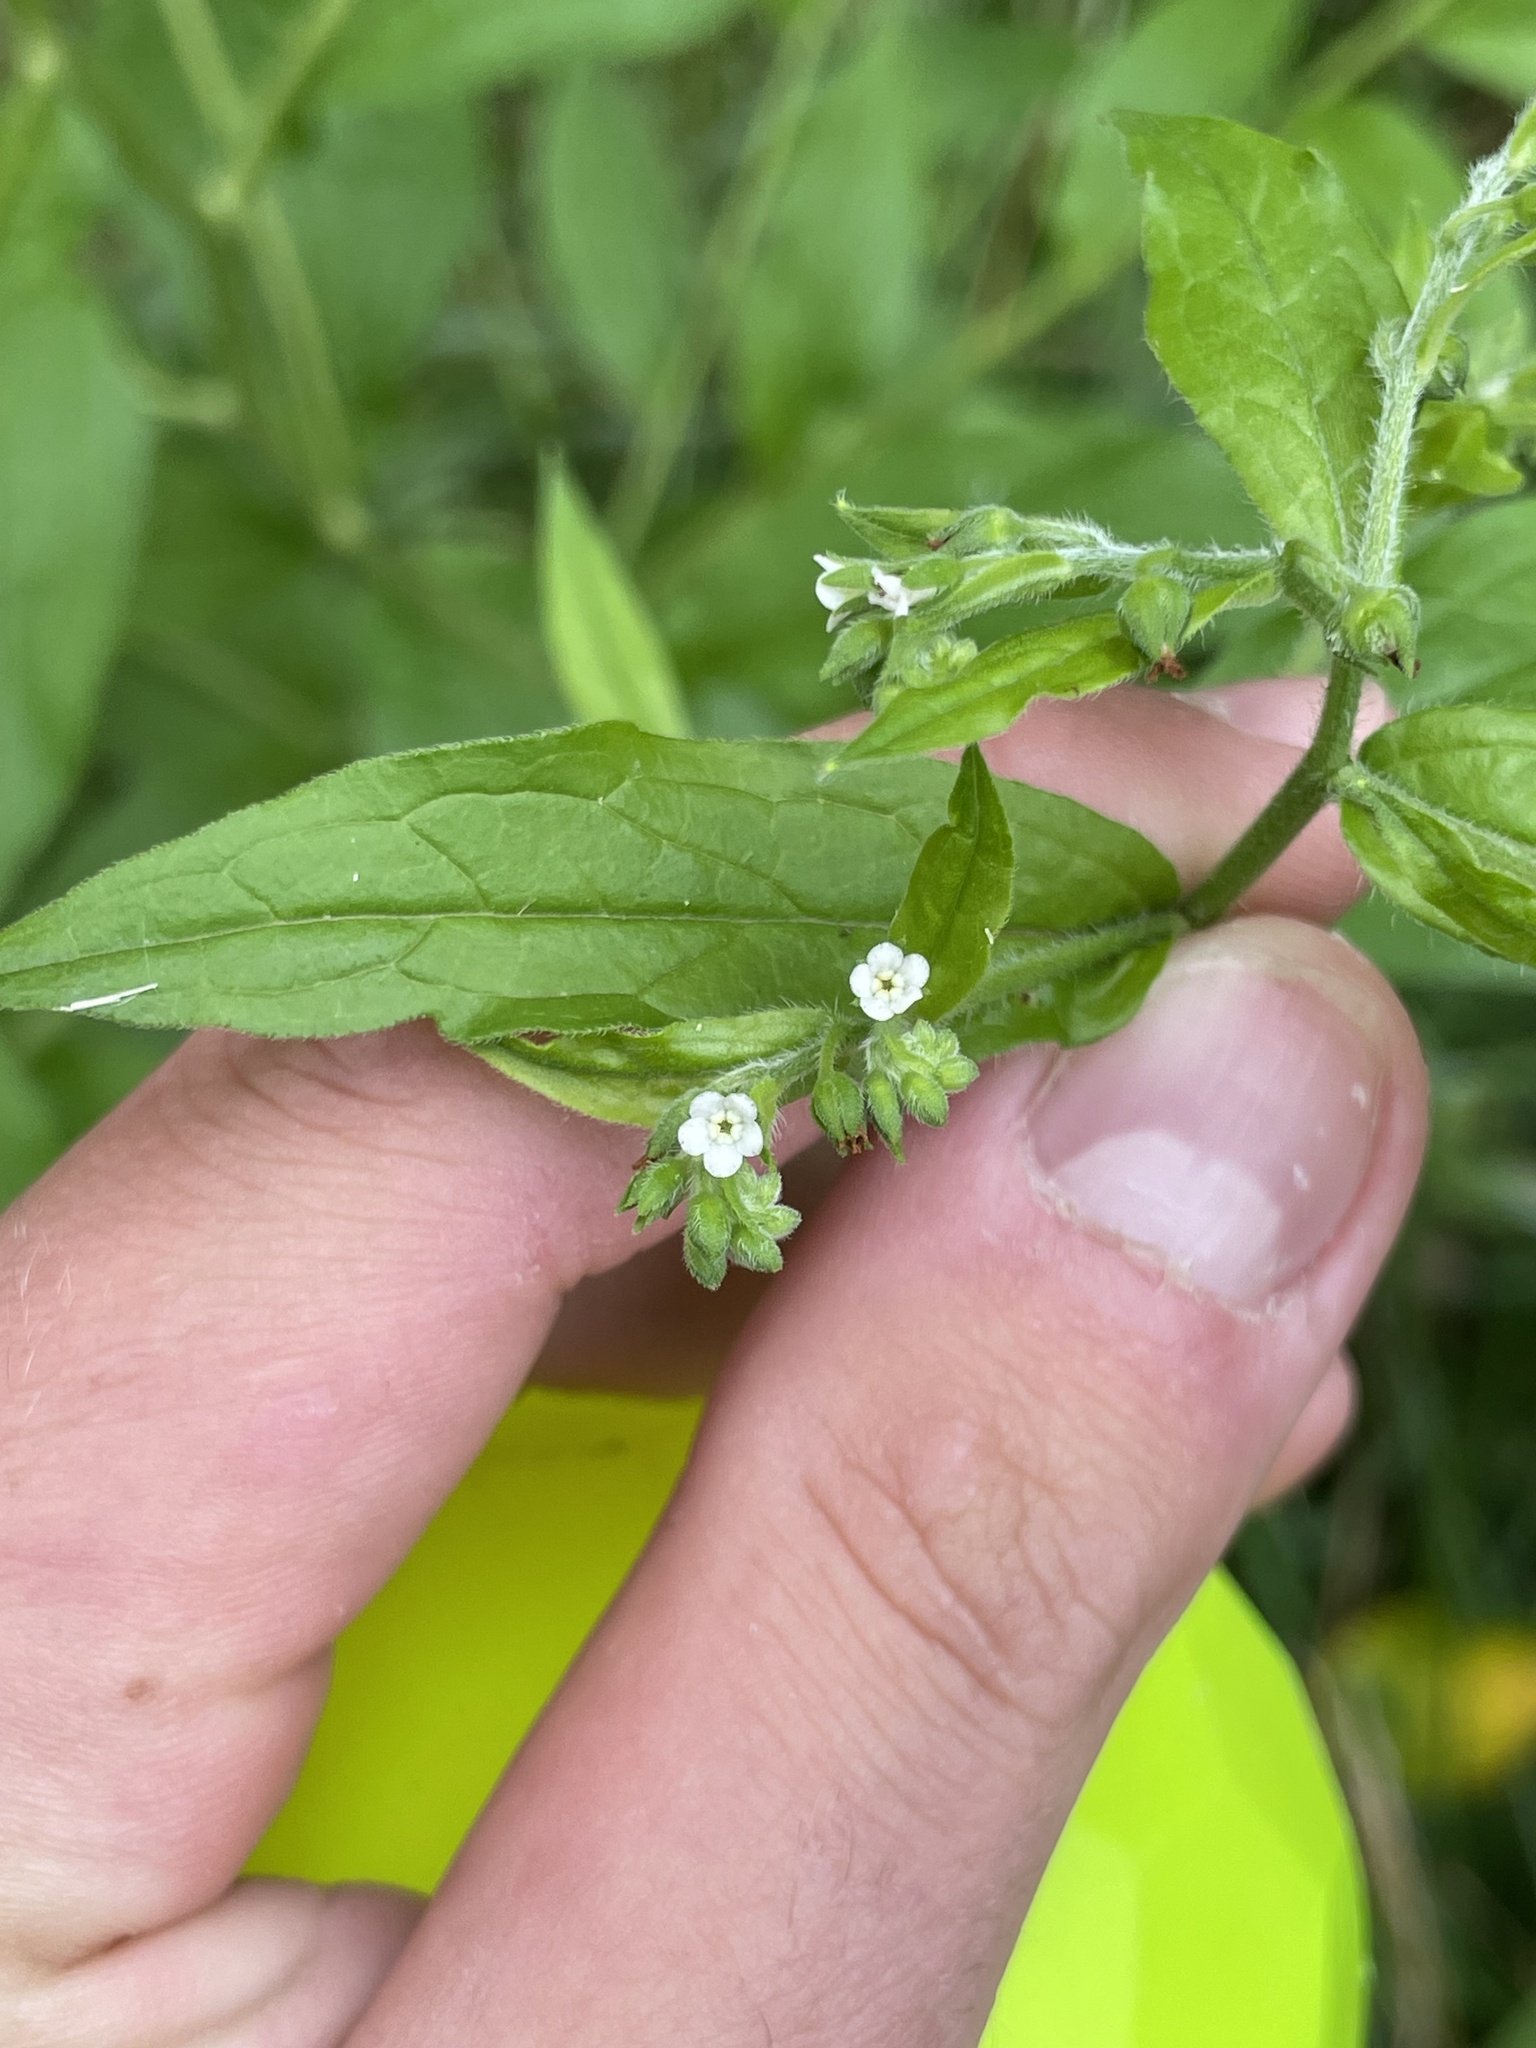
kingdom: Plantae
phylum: Tracheophyta
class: Magnoliopsida
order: Boraginales
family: Boraginaceae
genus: Hackelia
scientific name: Hackelia virginiana
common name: Beggar's-lice
